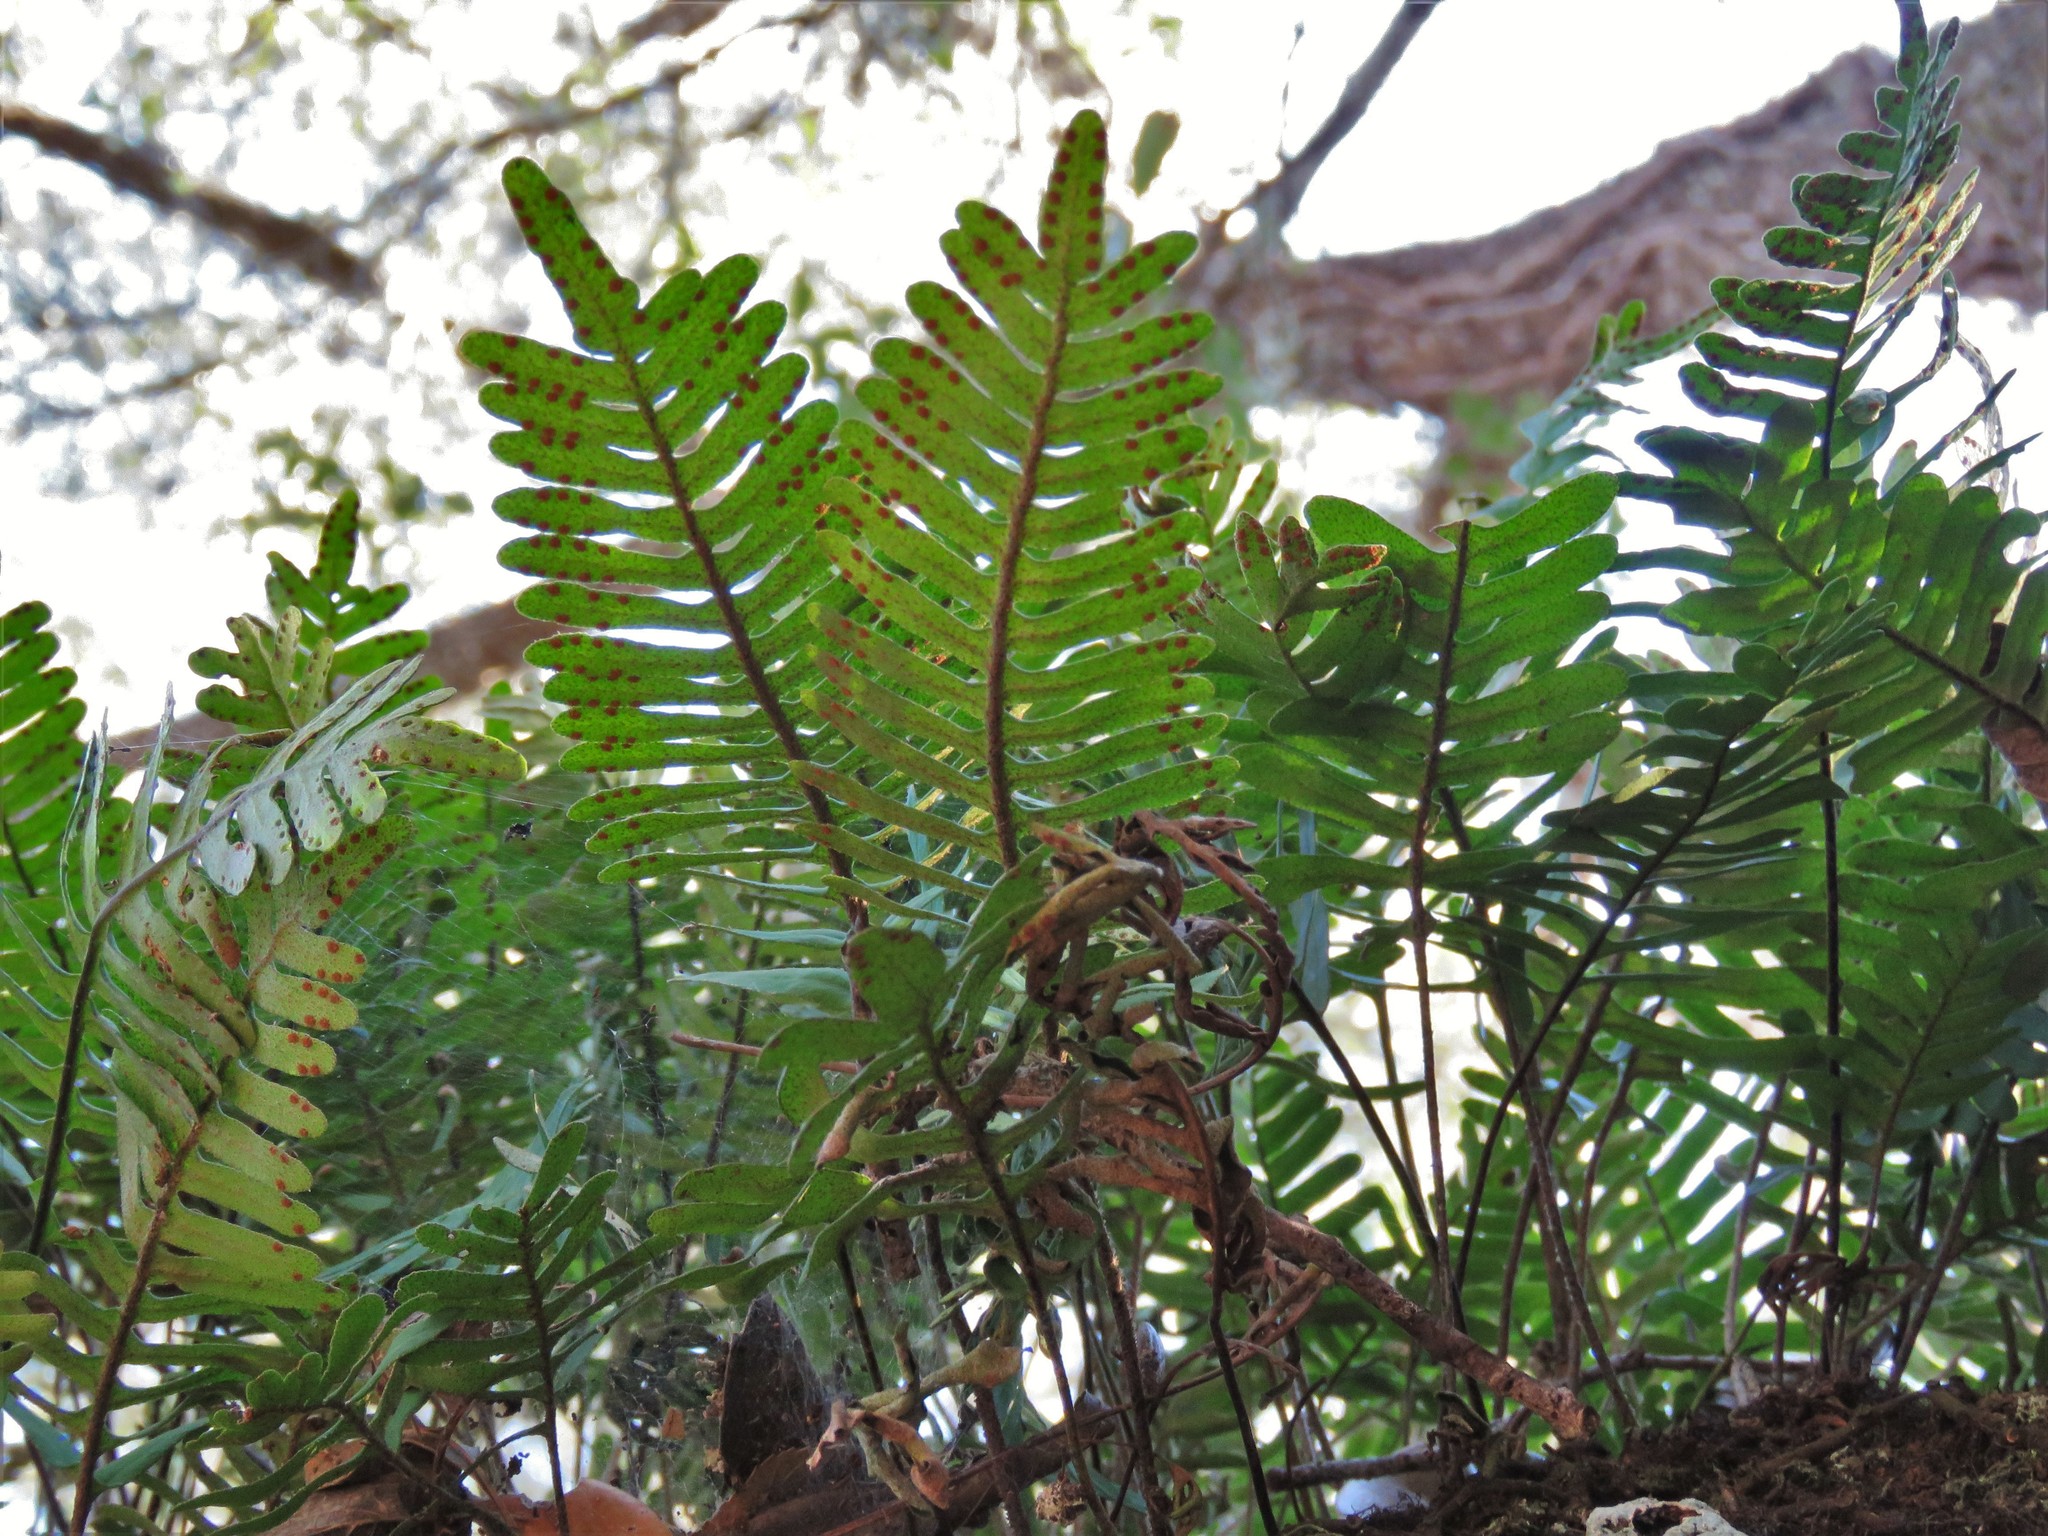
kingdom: Plantae
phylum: Tracheophyta
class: Polypodiopsida
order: Polypodiales
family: Polypodiaceae
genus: Pleopeltis
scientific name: Pleopeltis michauxiana
